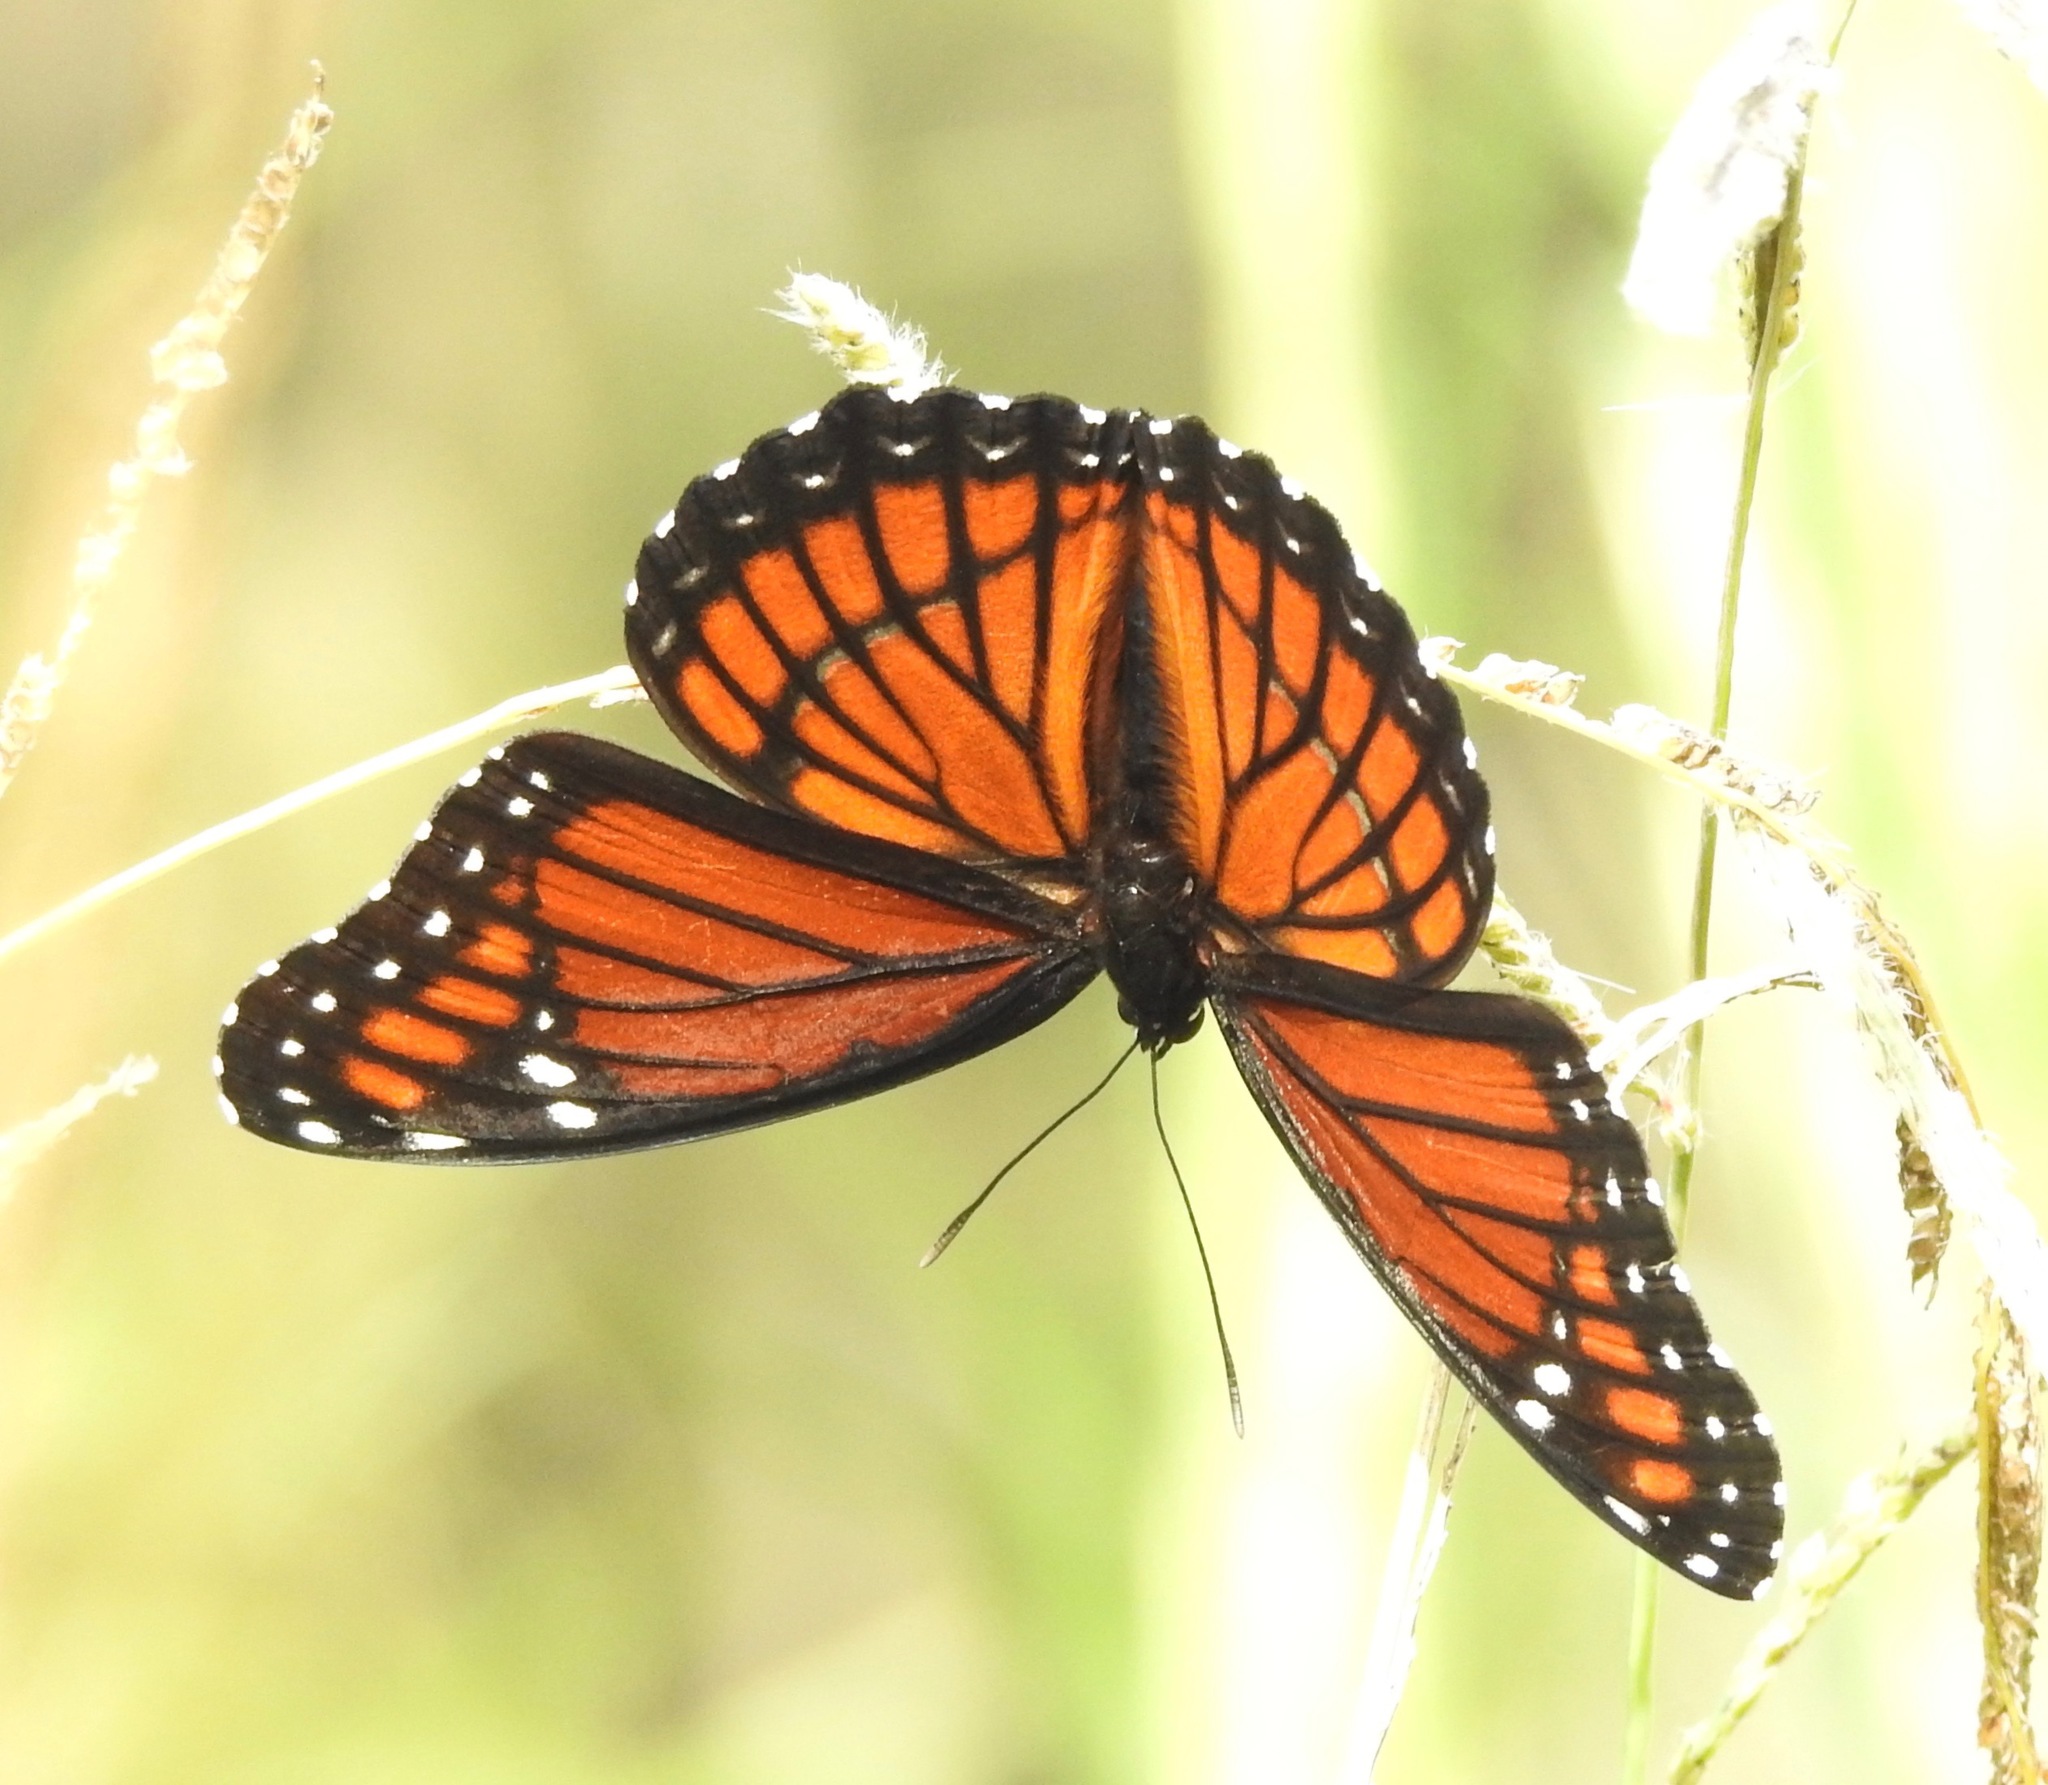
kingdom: Animalia
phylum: Arthropoda
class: Insecta
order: Lepidoptera
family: Nymphalidae
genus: Limenitis
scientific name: Limenitis archippus
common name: Viceroy
